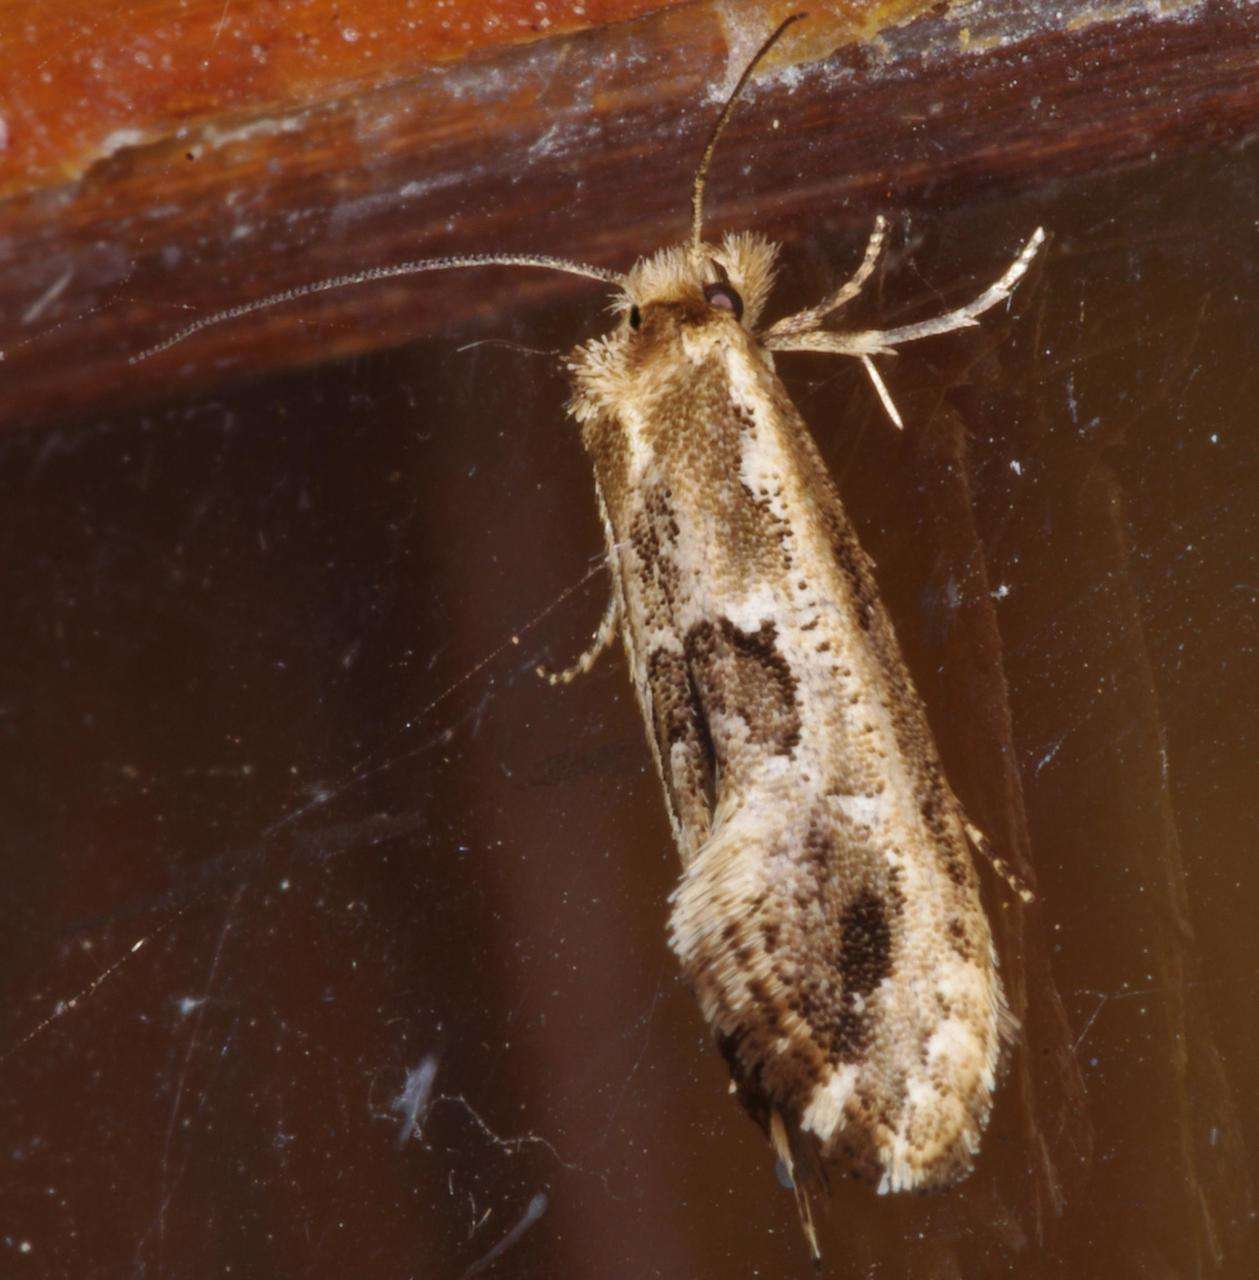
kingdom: Animalia
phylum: Arthropoda
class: Insecta
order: Lepidoptera
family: Tineidae
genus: Moerarchis
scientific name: Moerarchis inconcisella
